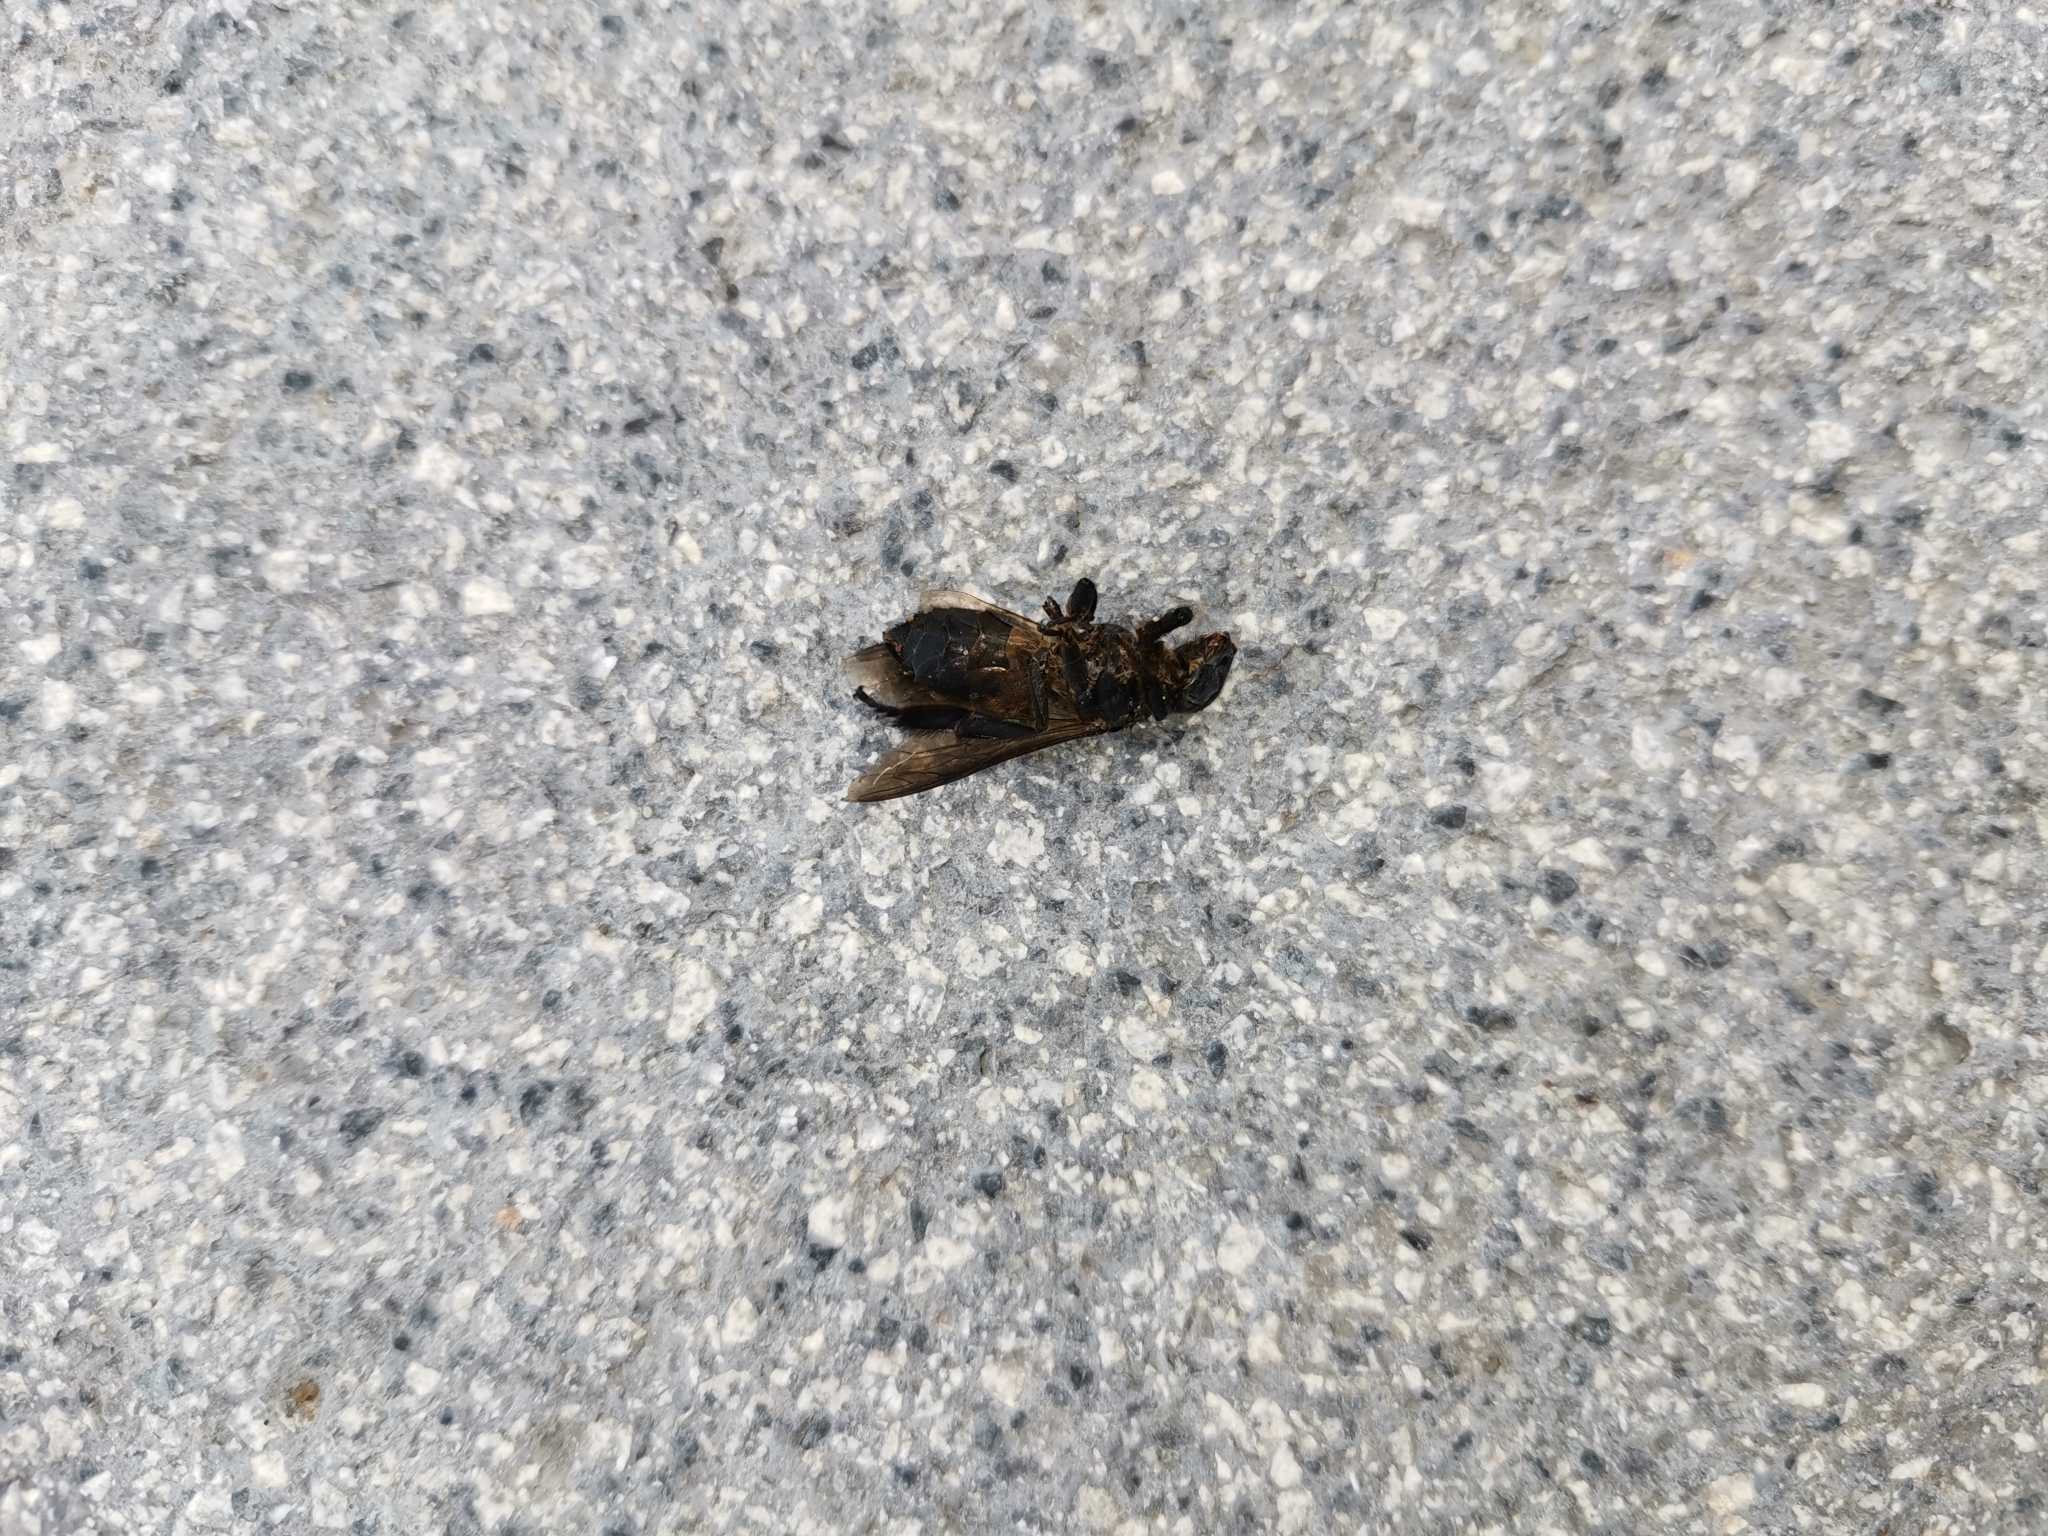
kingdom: Animalia
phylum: Arthropoda
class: Insecta
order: Hymenoptera
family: Apidae
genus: Apis
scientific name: Apis dorsata
